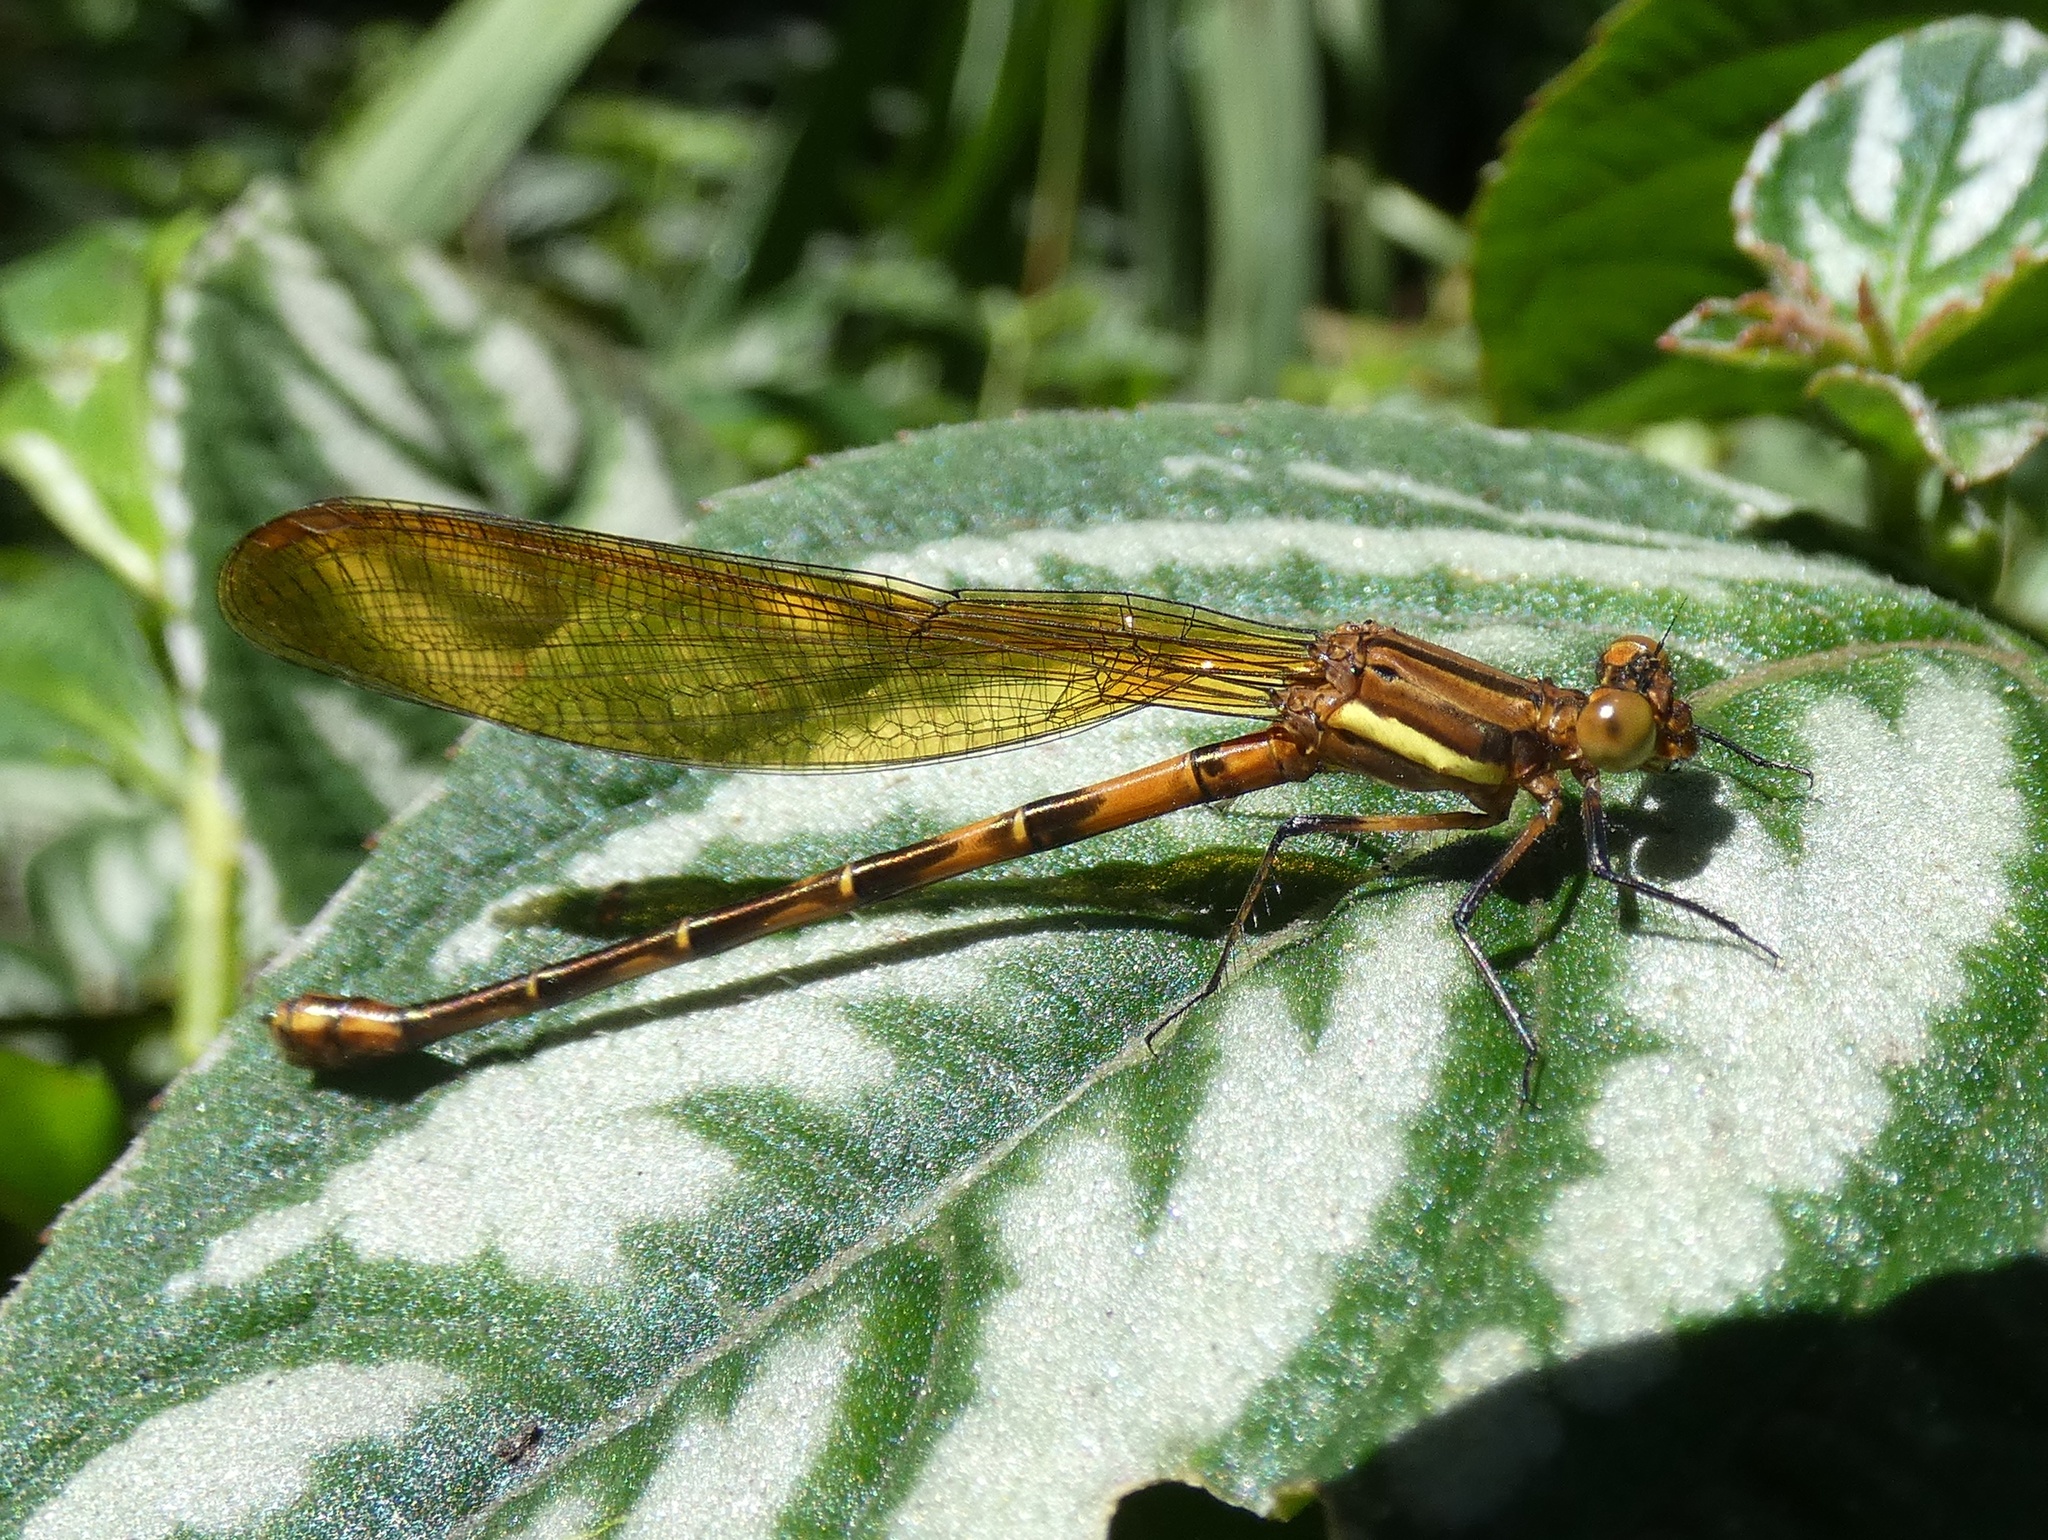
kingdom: Animalia
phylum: Arthropoda
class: Insecta
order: Odonata
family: Coenagrionidae
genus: Argia
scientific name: Argia terira
